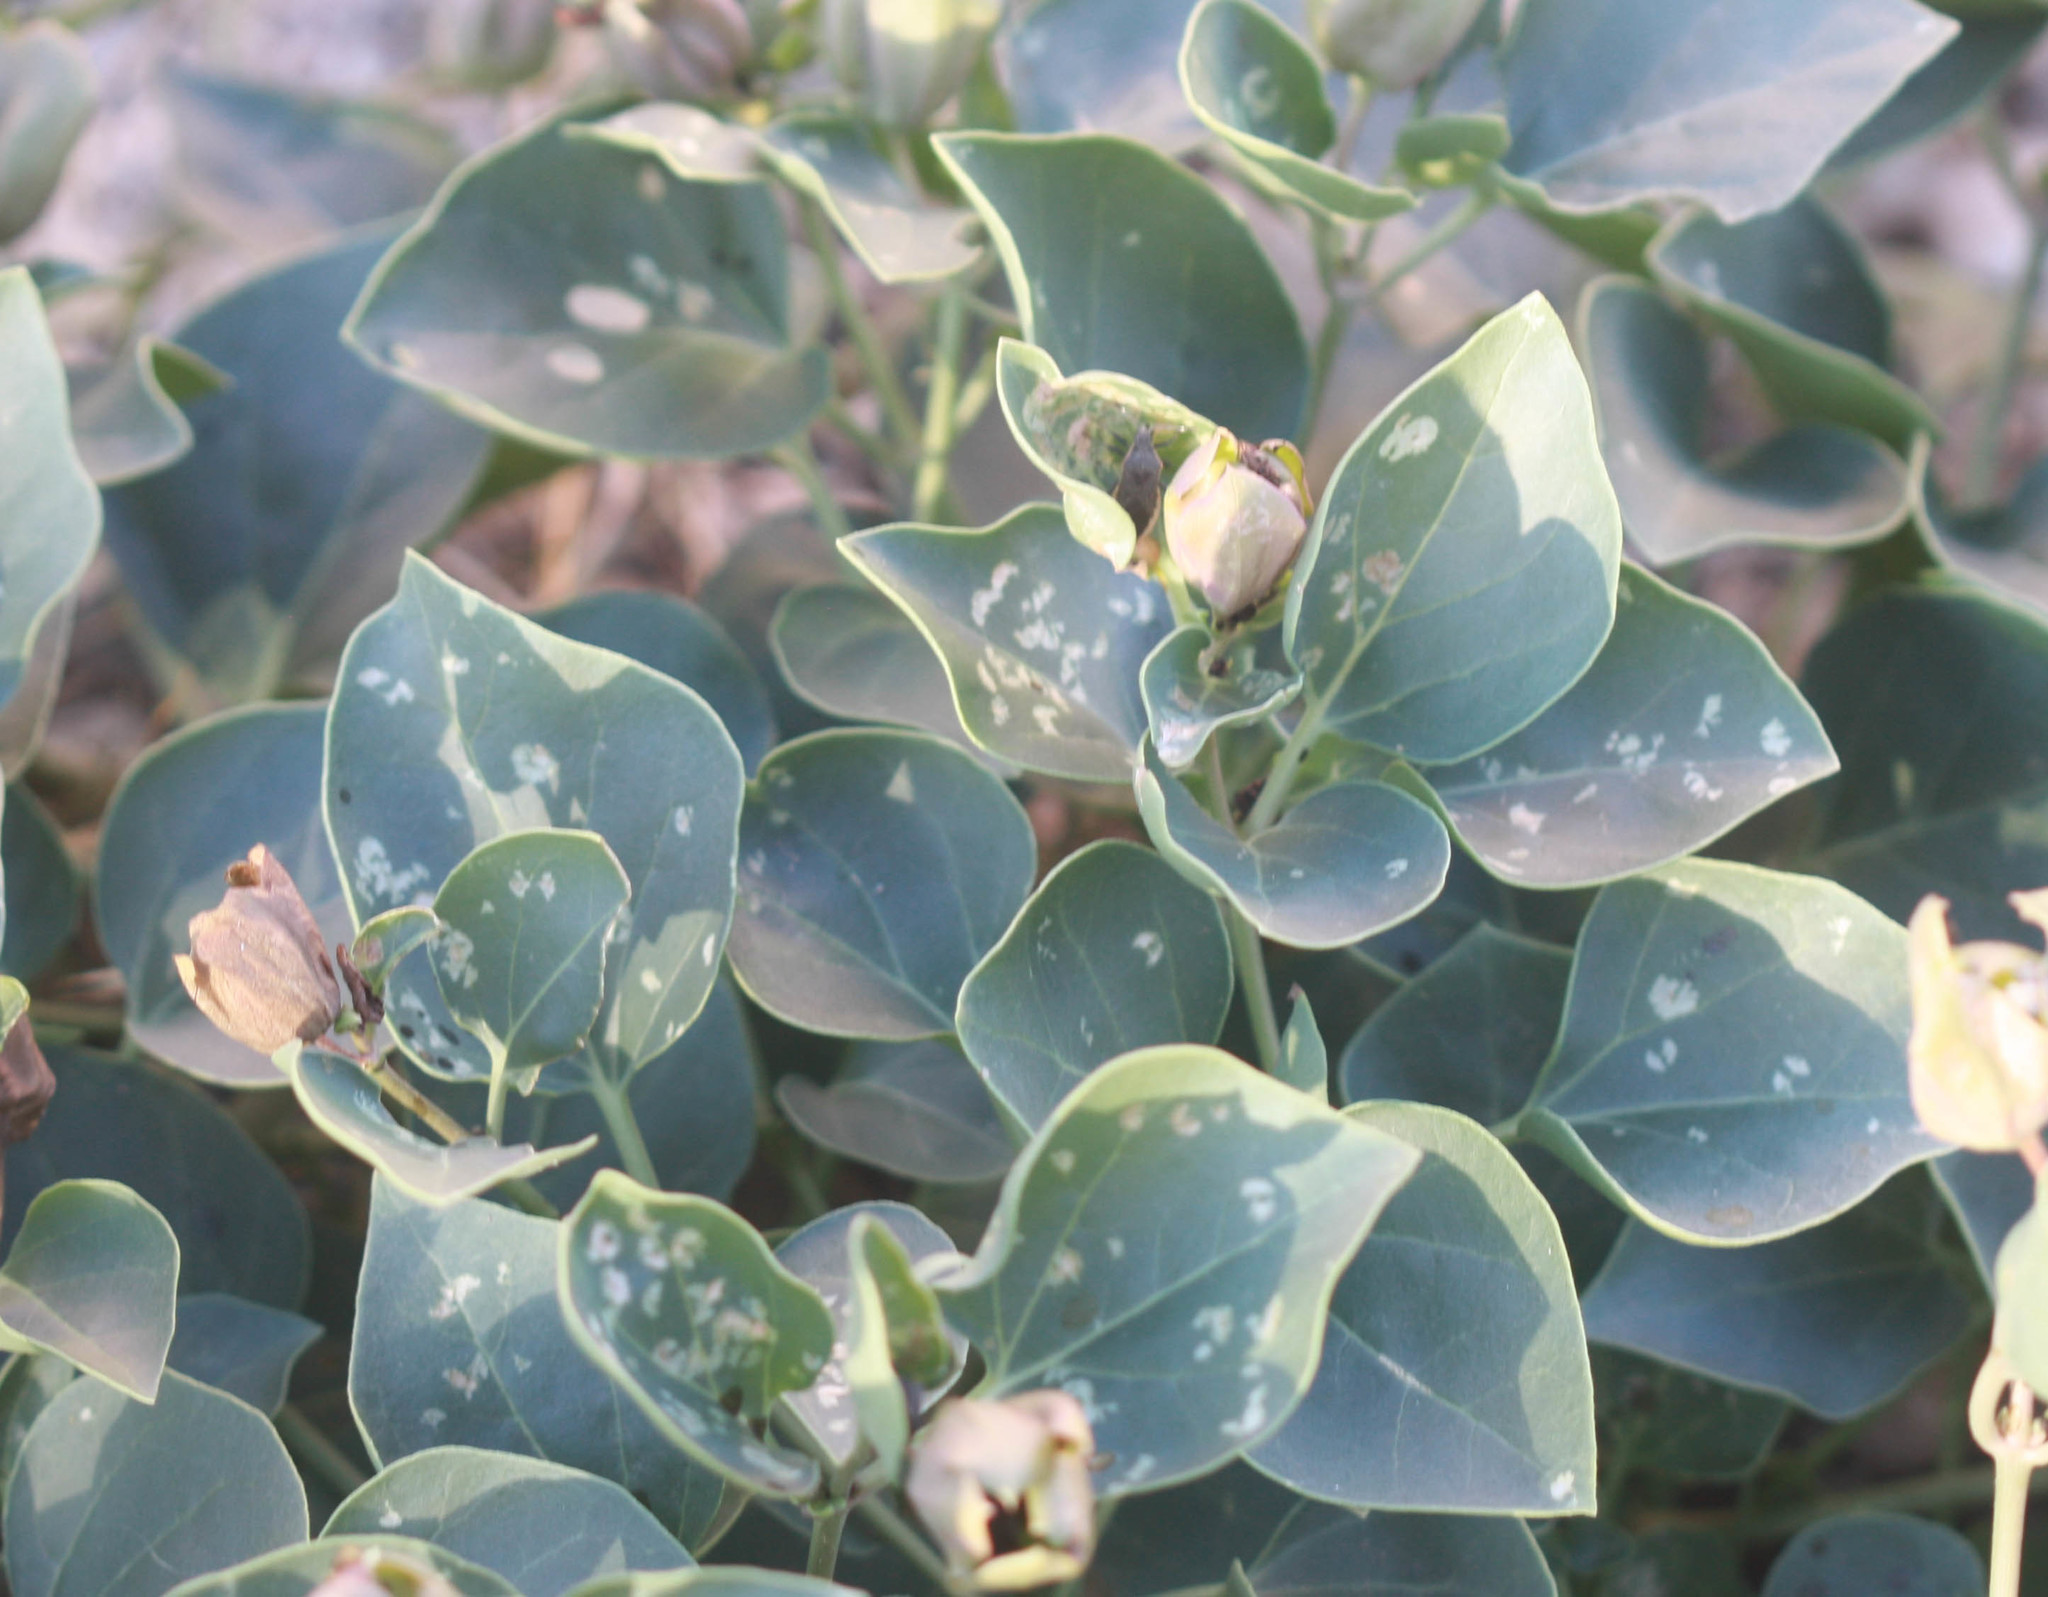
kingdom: Plantae
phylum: Tracheophyta
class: Magnoliopsida
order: Caryophyllales
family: Nyctaginaceae
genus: Mirabilis
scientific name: Mirabilis multiflora
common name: Froebel's four-o'clock
